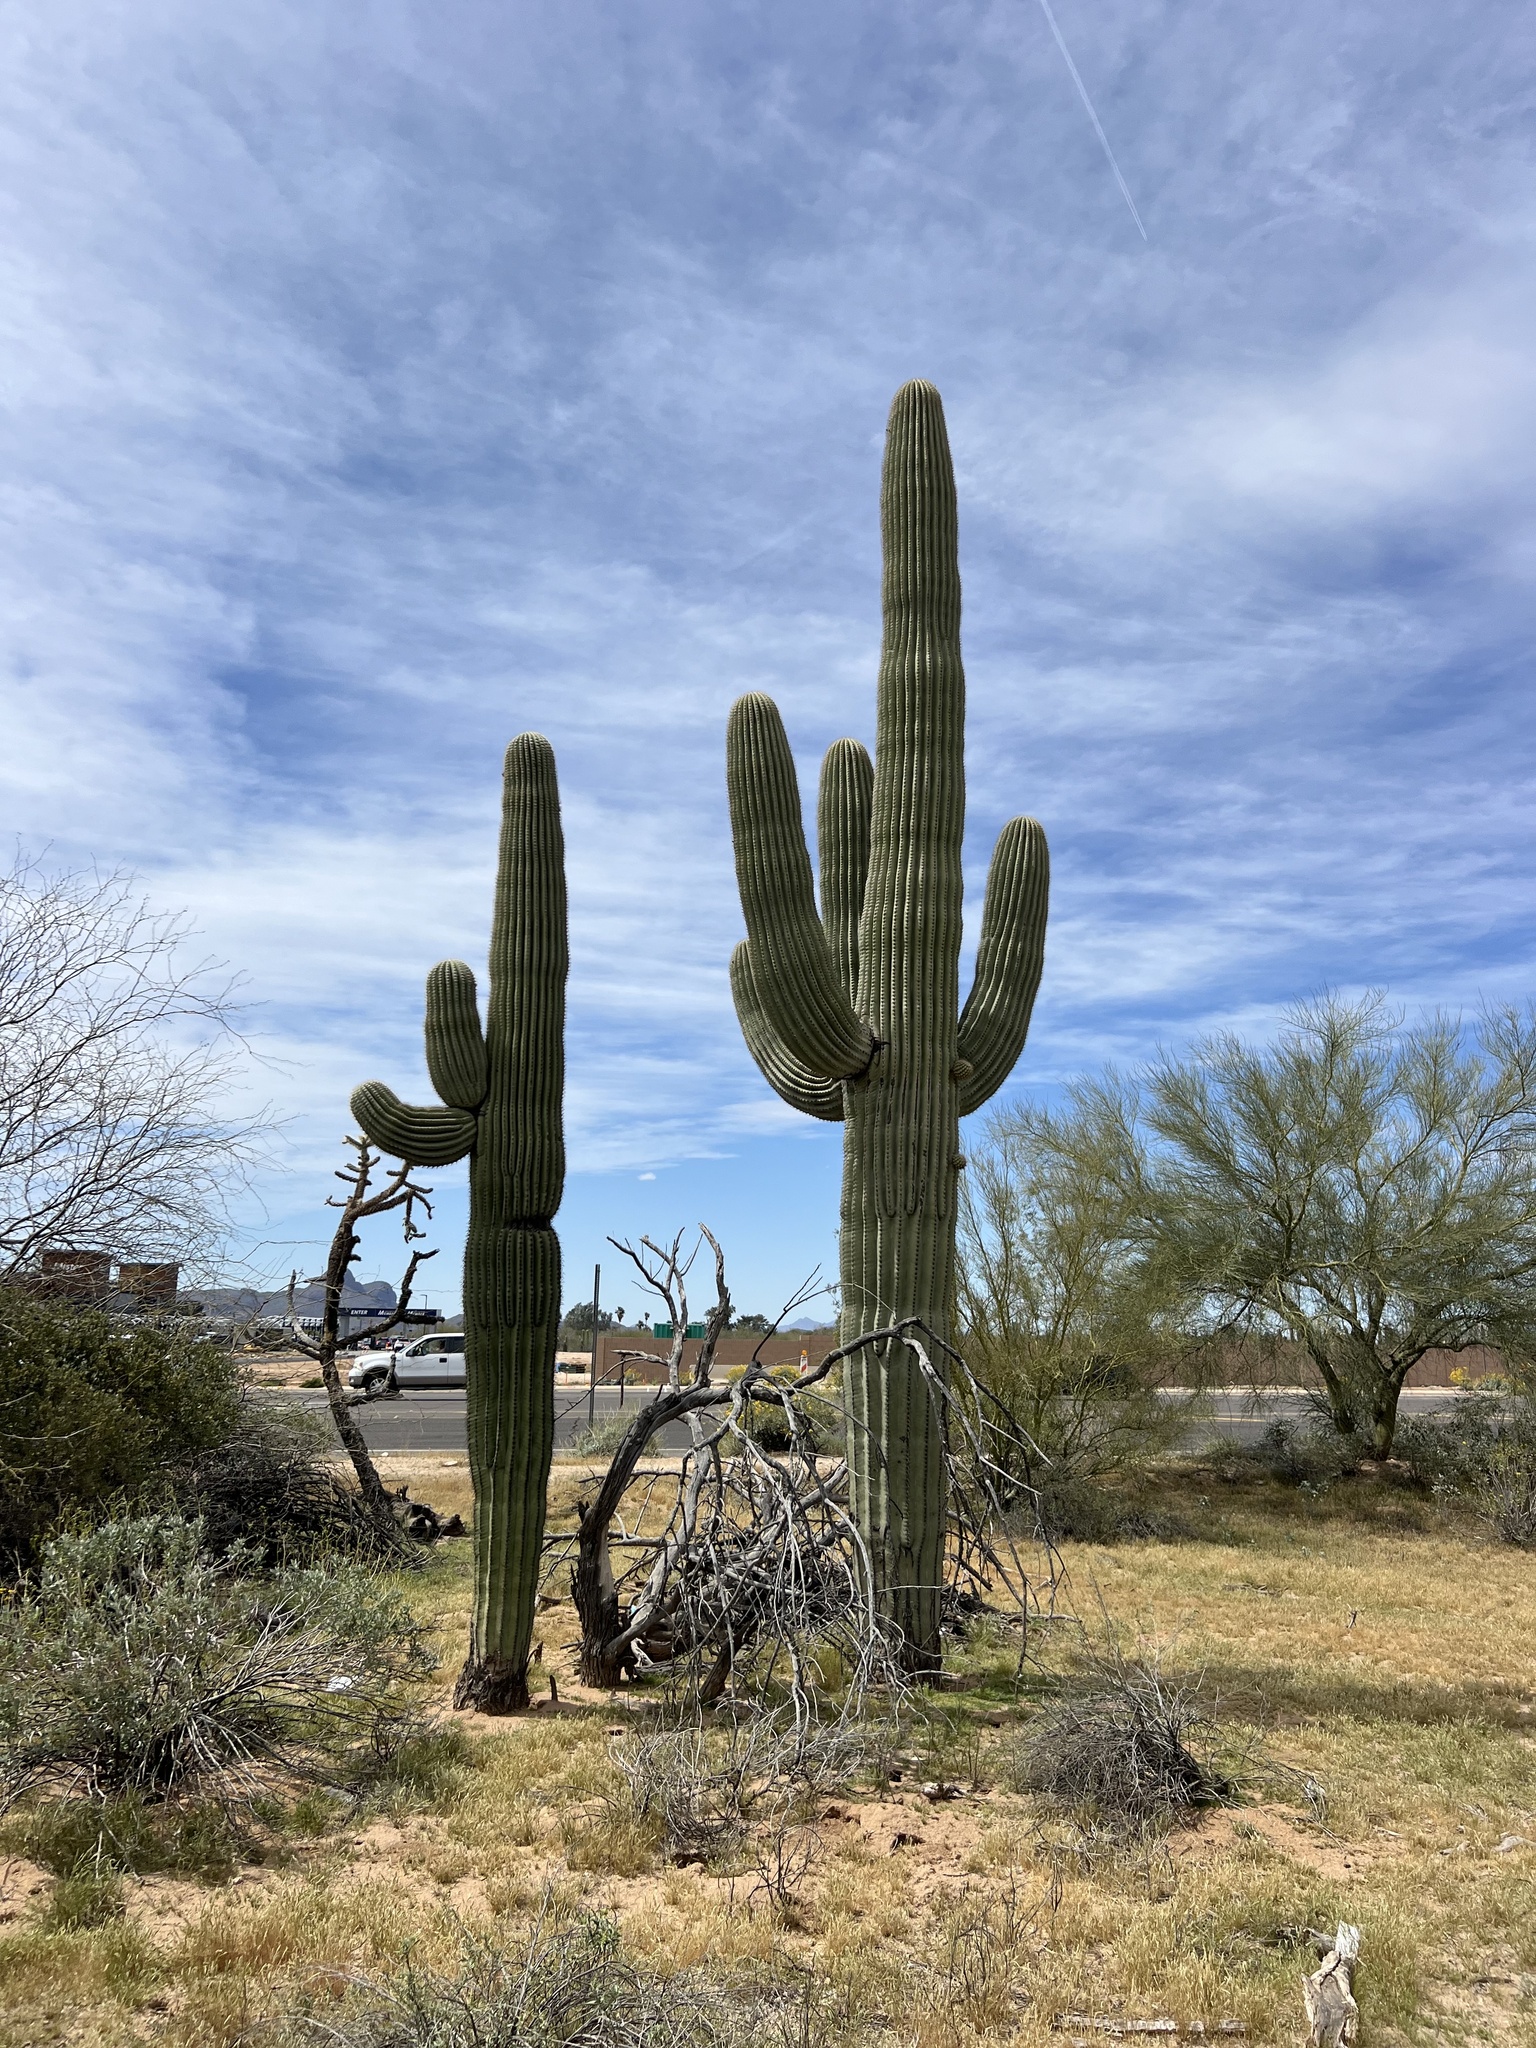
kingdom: Plantae
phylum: Tracheophyta
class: Magnoliopsida
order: Caryophyllales
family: Cactaceae
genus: Carnegiea
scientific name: Carnegiea gigantea
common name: Saguaro
